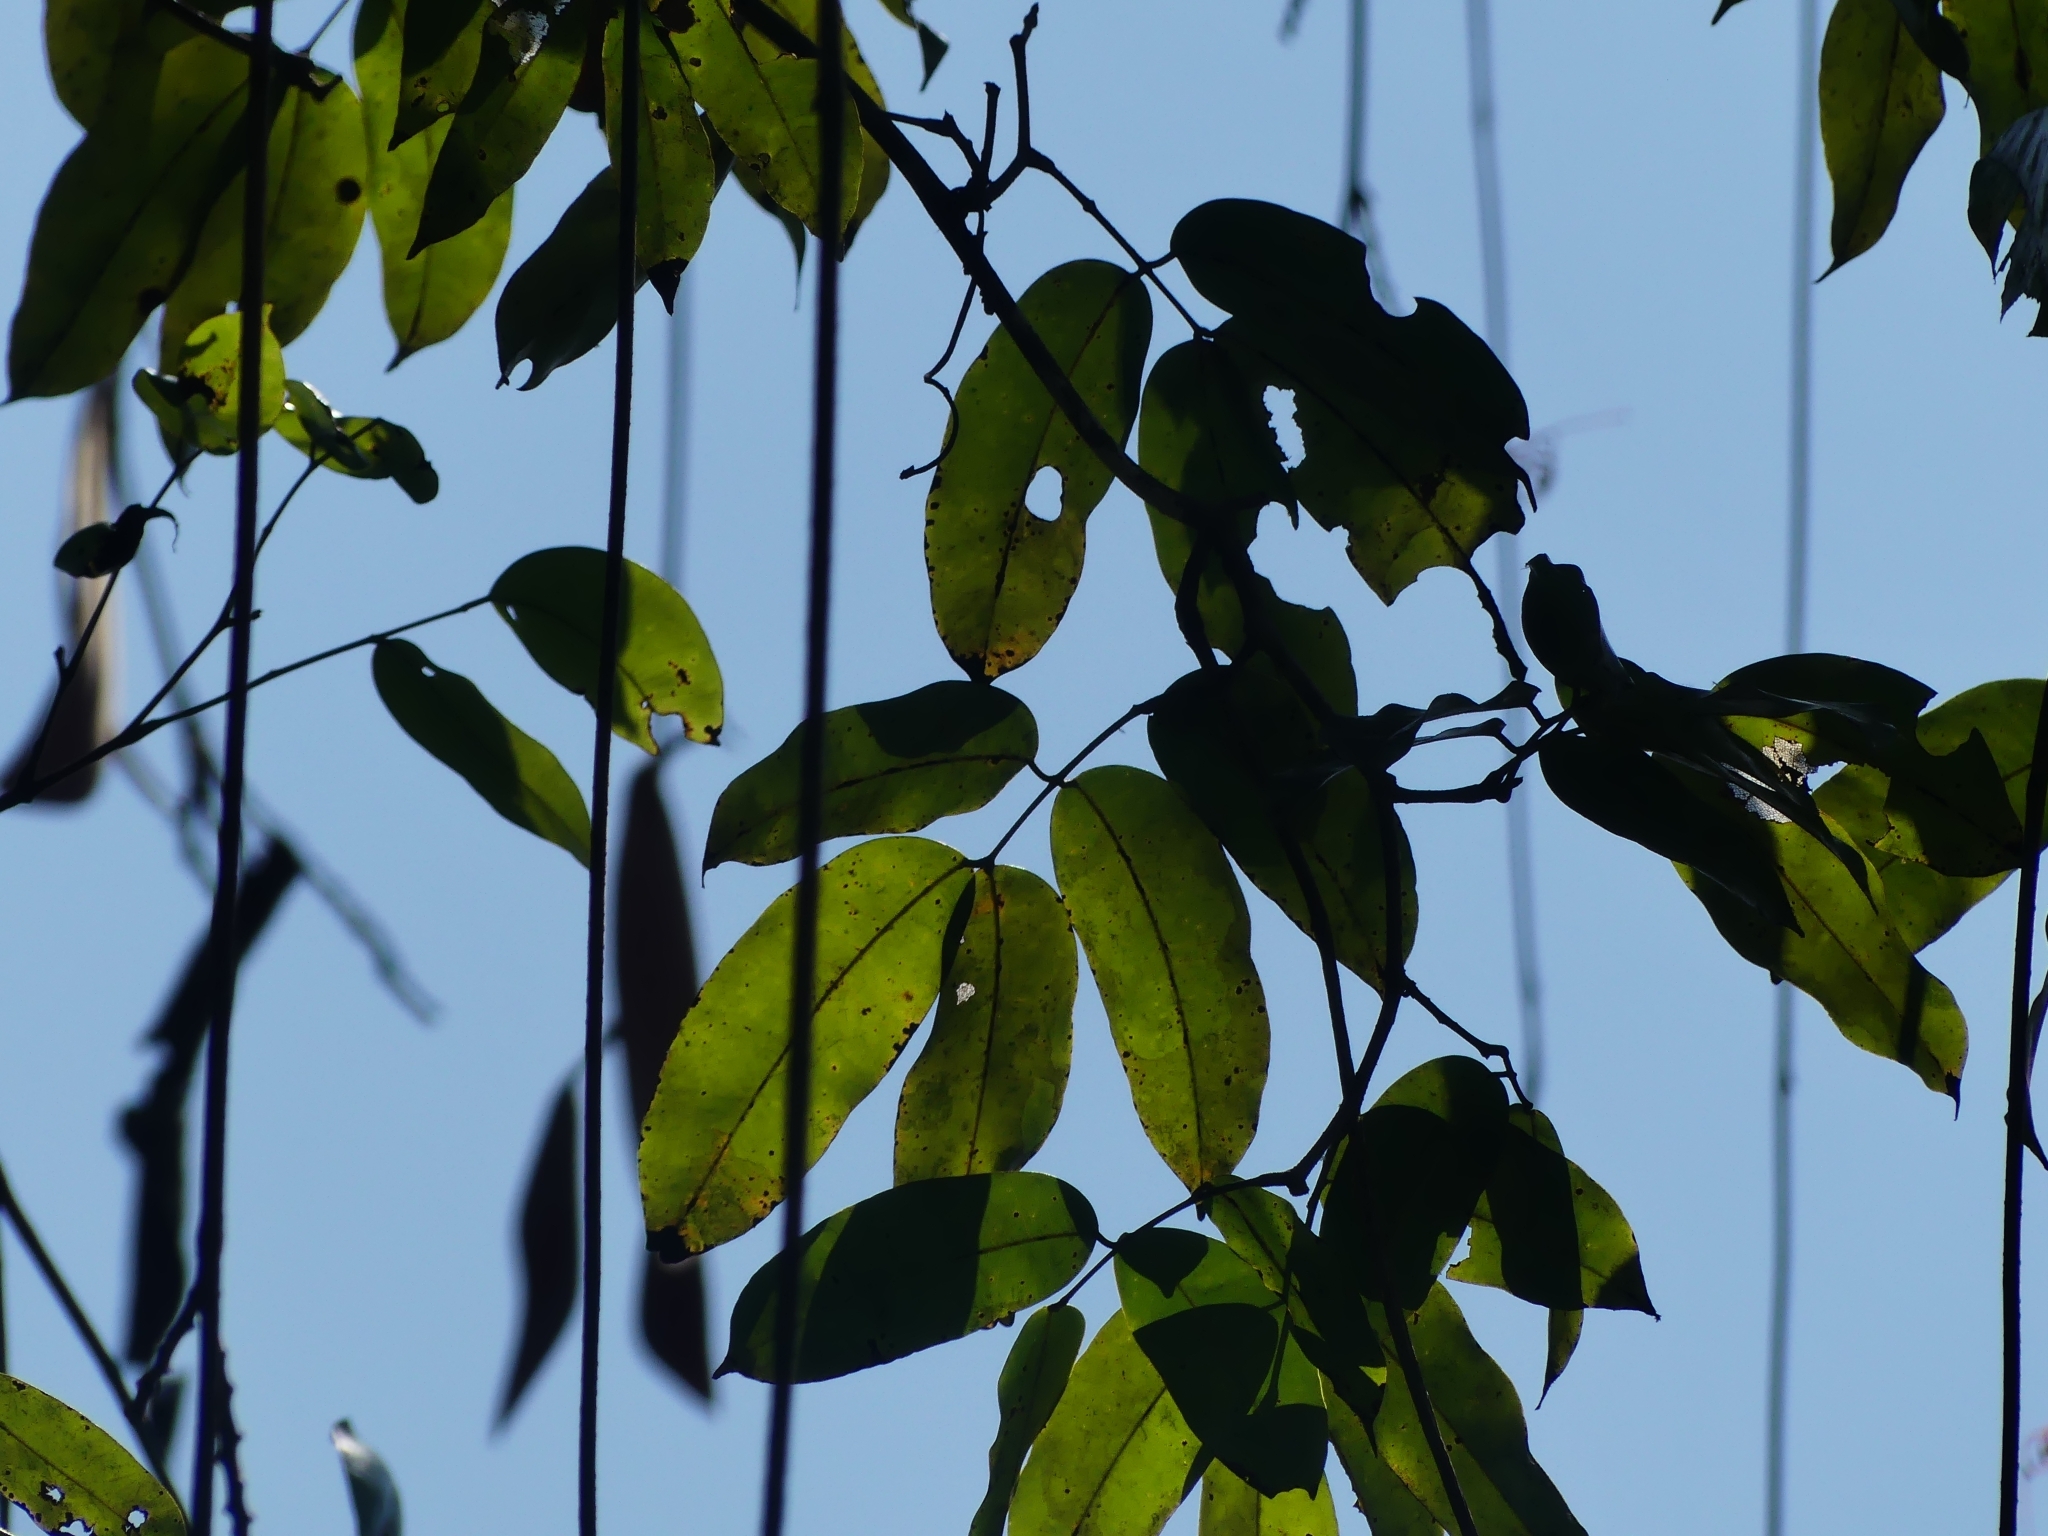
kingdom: Plantae
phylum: Tracheophyta
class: Magnoliopsida
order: Fabales
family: Fabaceae
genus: Eperua
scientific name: Eperua falcata
